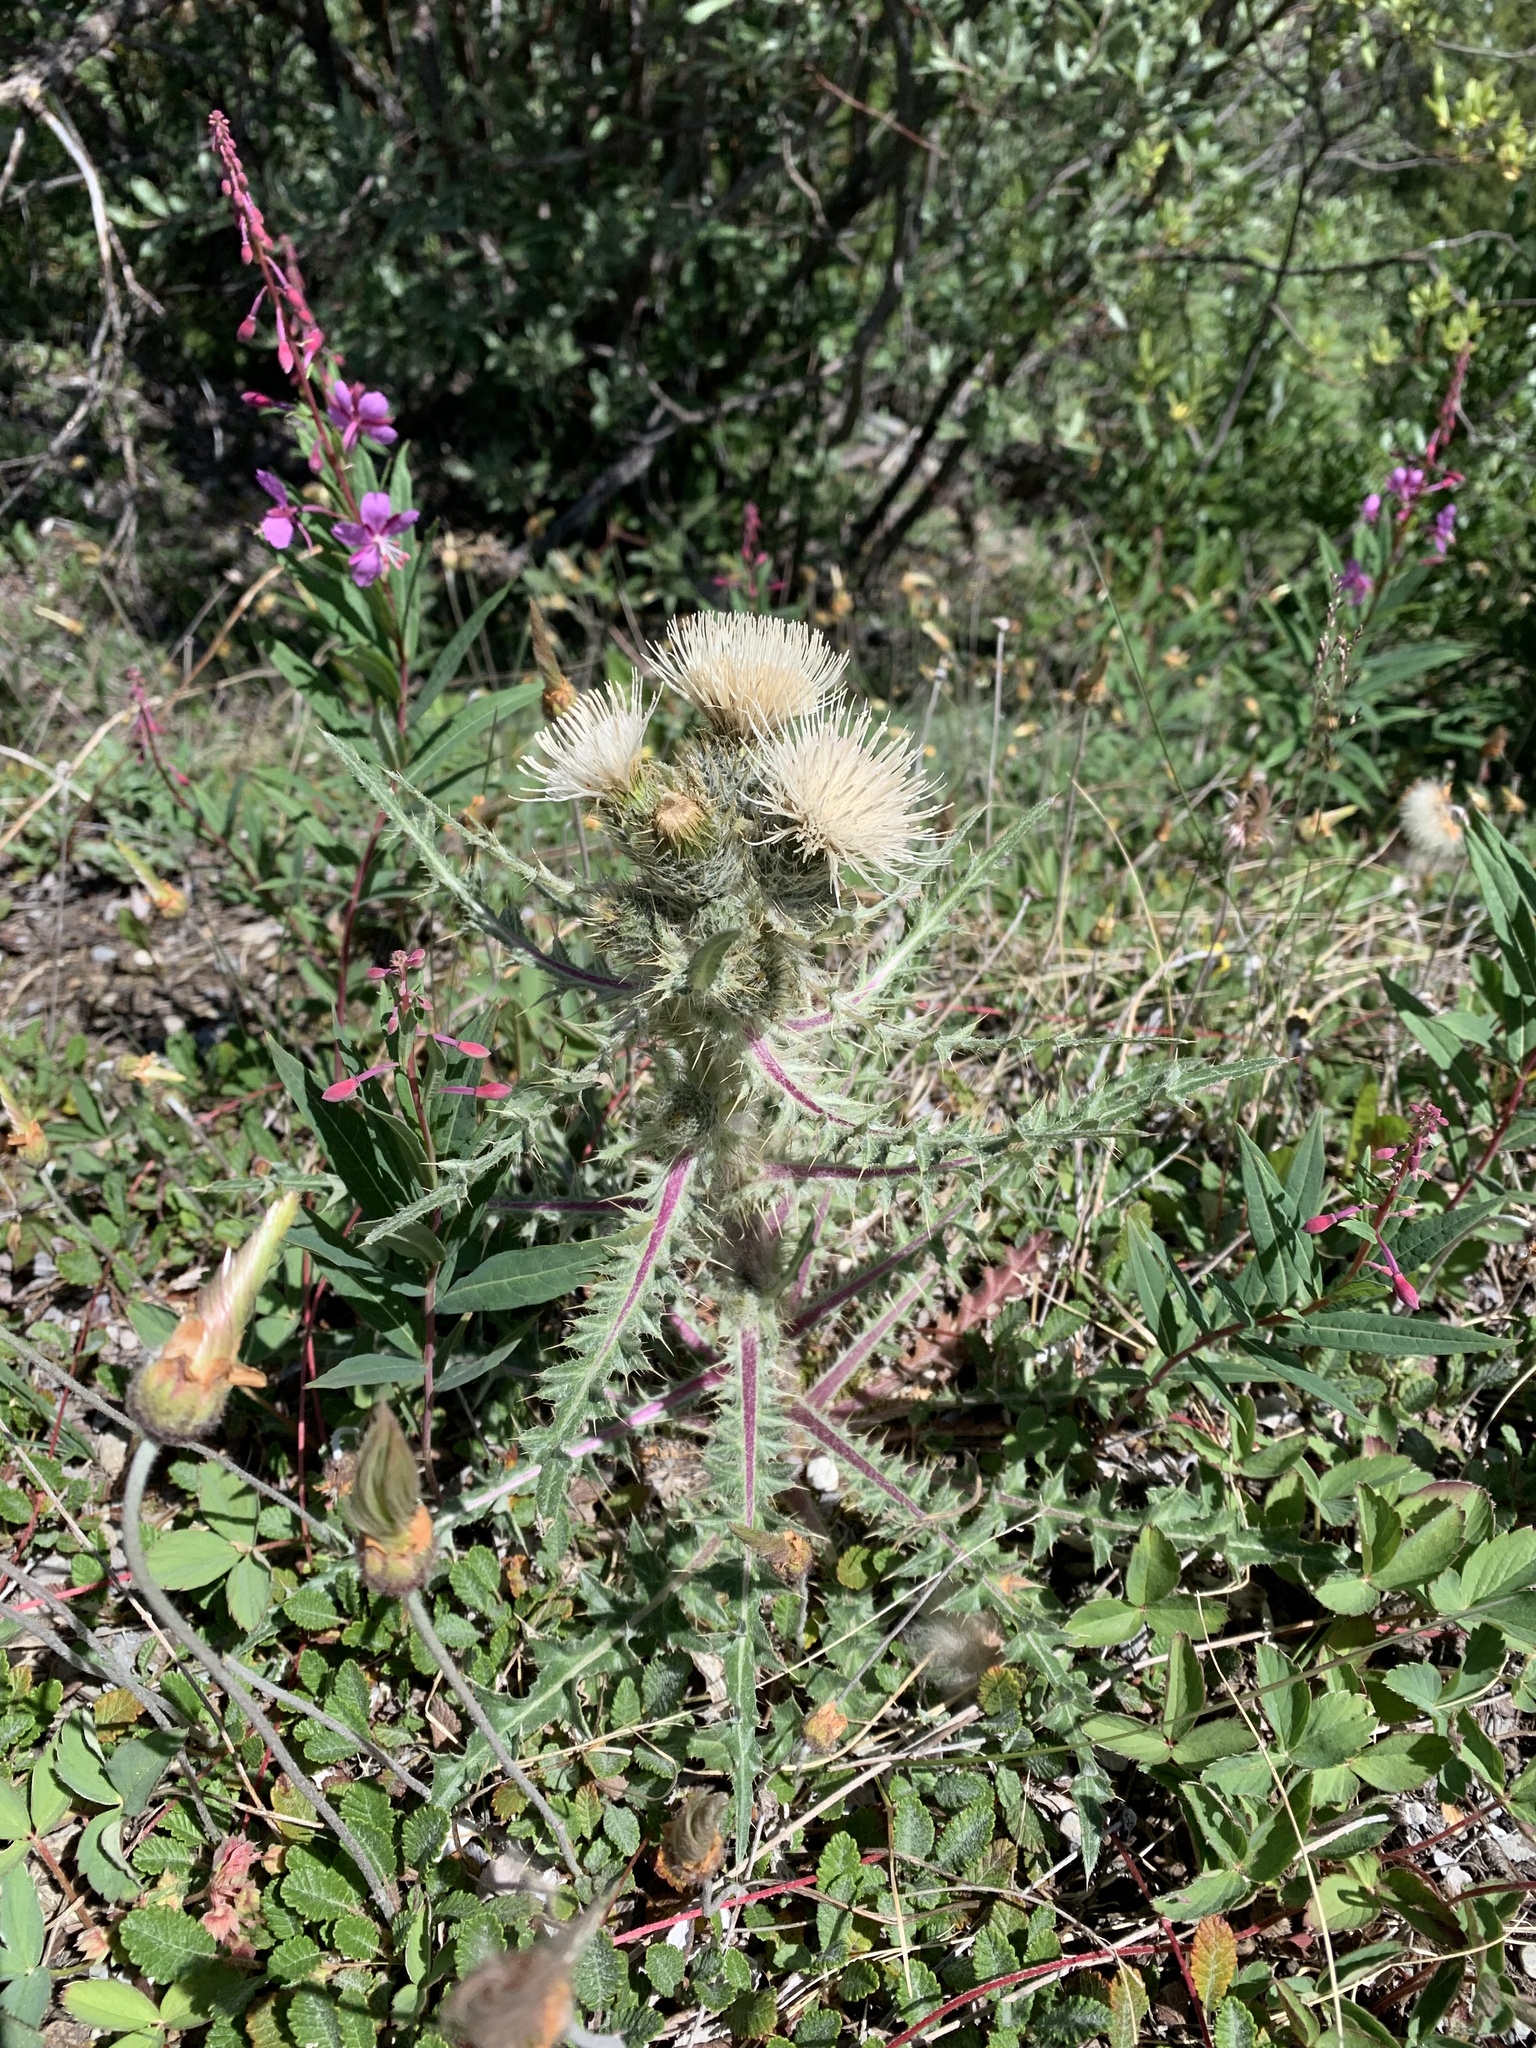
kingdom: Plantae
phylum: Tracheophyta
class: Magnoliopsida
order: Asterales
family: Asteraceae
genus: Cirsium
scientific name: Cirsium hookerianum
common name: Hooker's thistle
